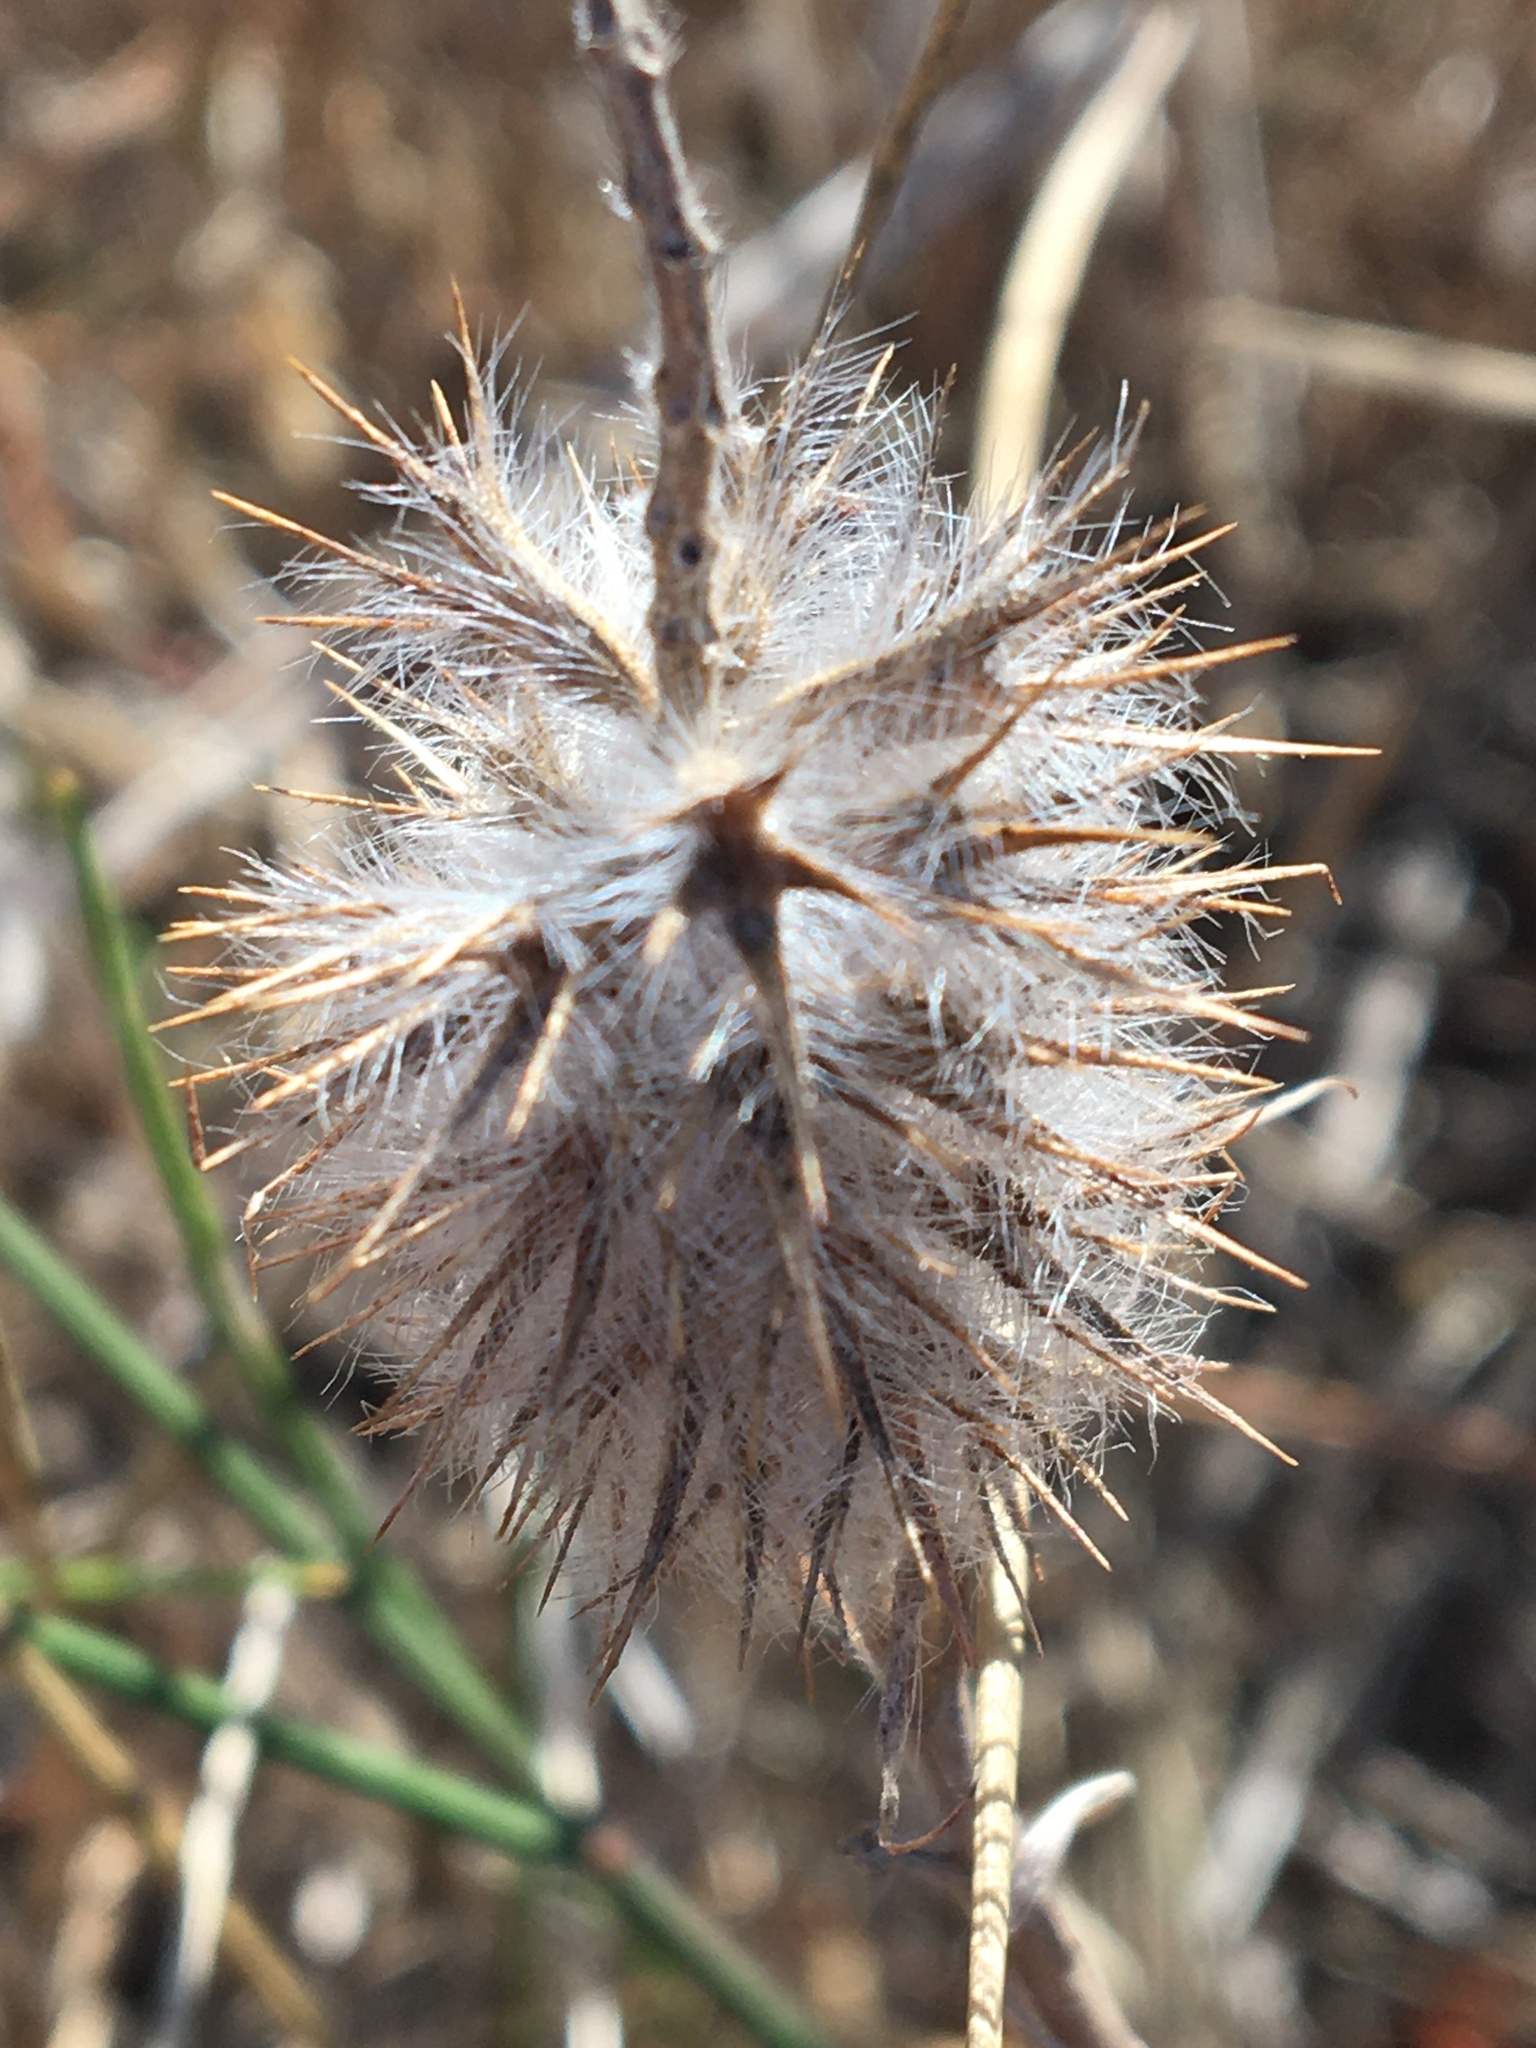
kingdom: Plantae
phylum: Tracheophyta
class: Magnoliopsida
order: Fabales
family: Fabaceae
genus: Trifolium
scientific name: Trifolium angustifolium
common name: Narrow clover
